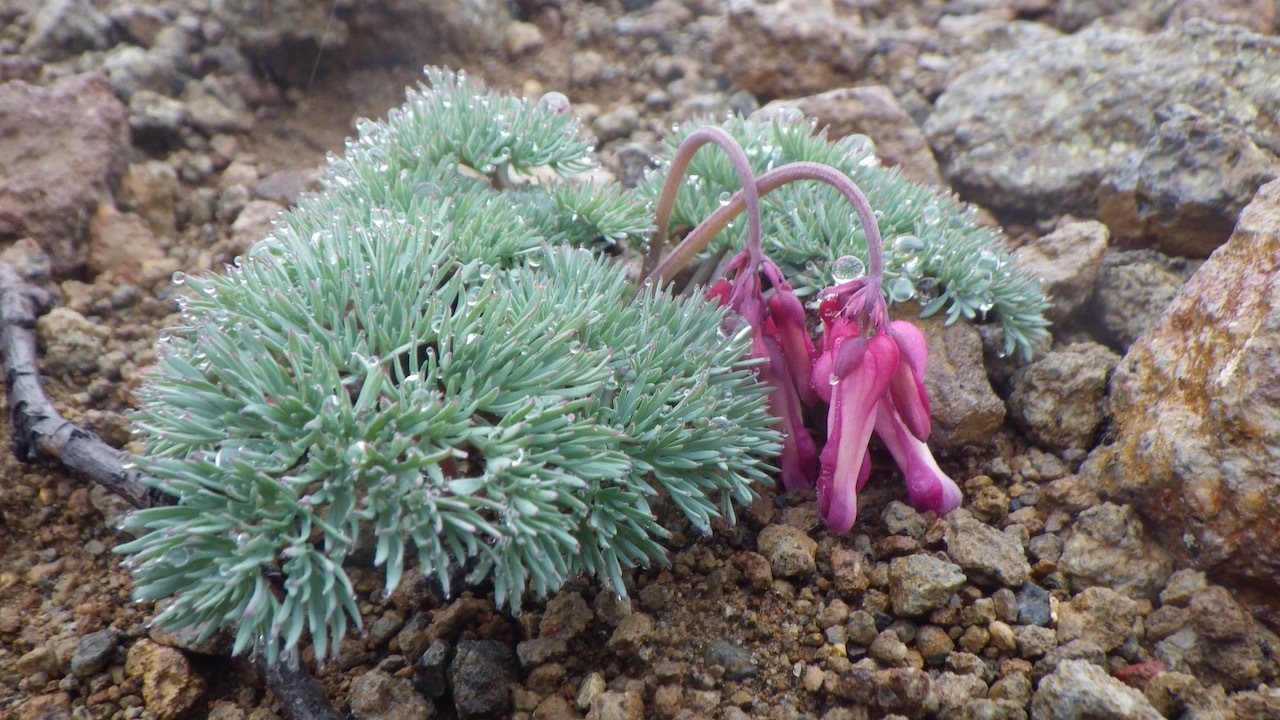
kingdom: Plantae
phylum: Tracheophyta
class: Magnoliopsida
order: Ranunculales
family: Papaveraceae
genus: Dicentra
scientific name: Dicentra peregrina
